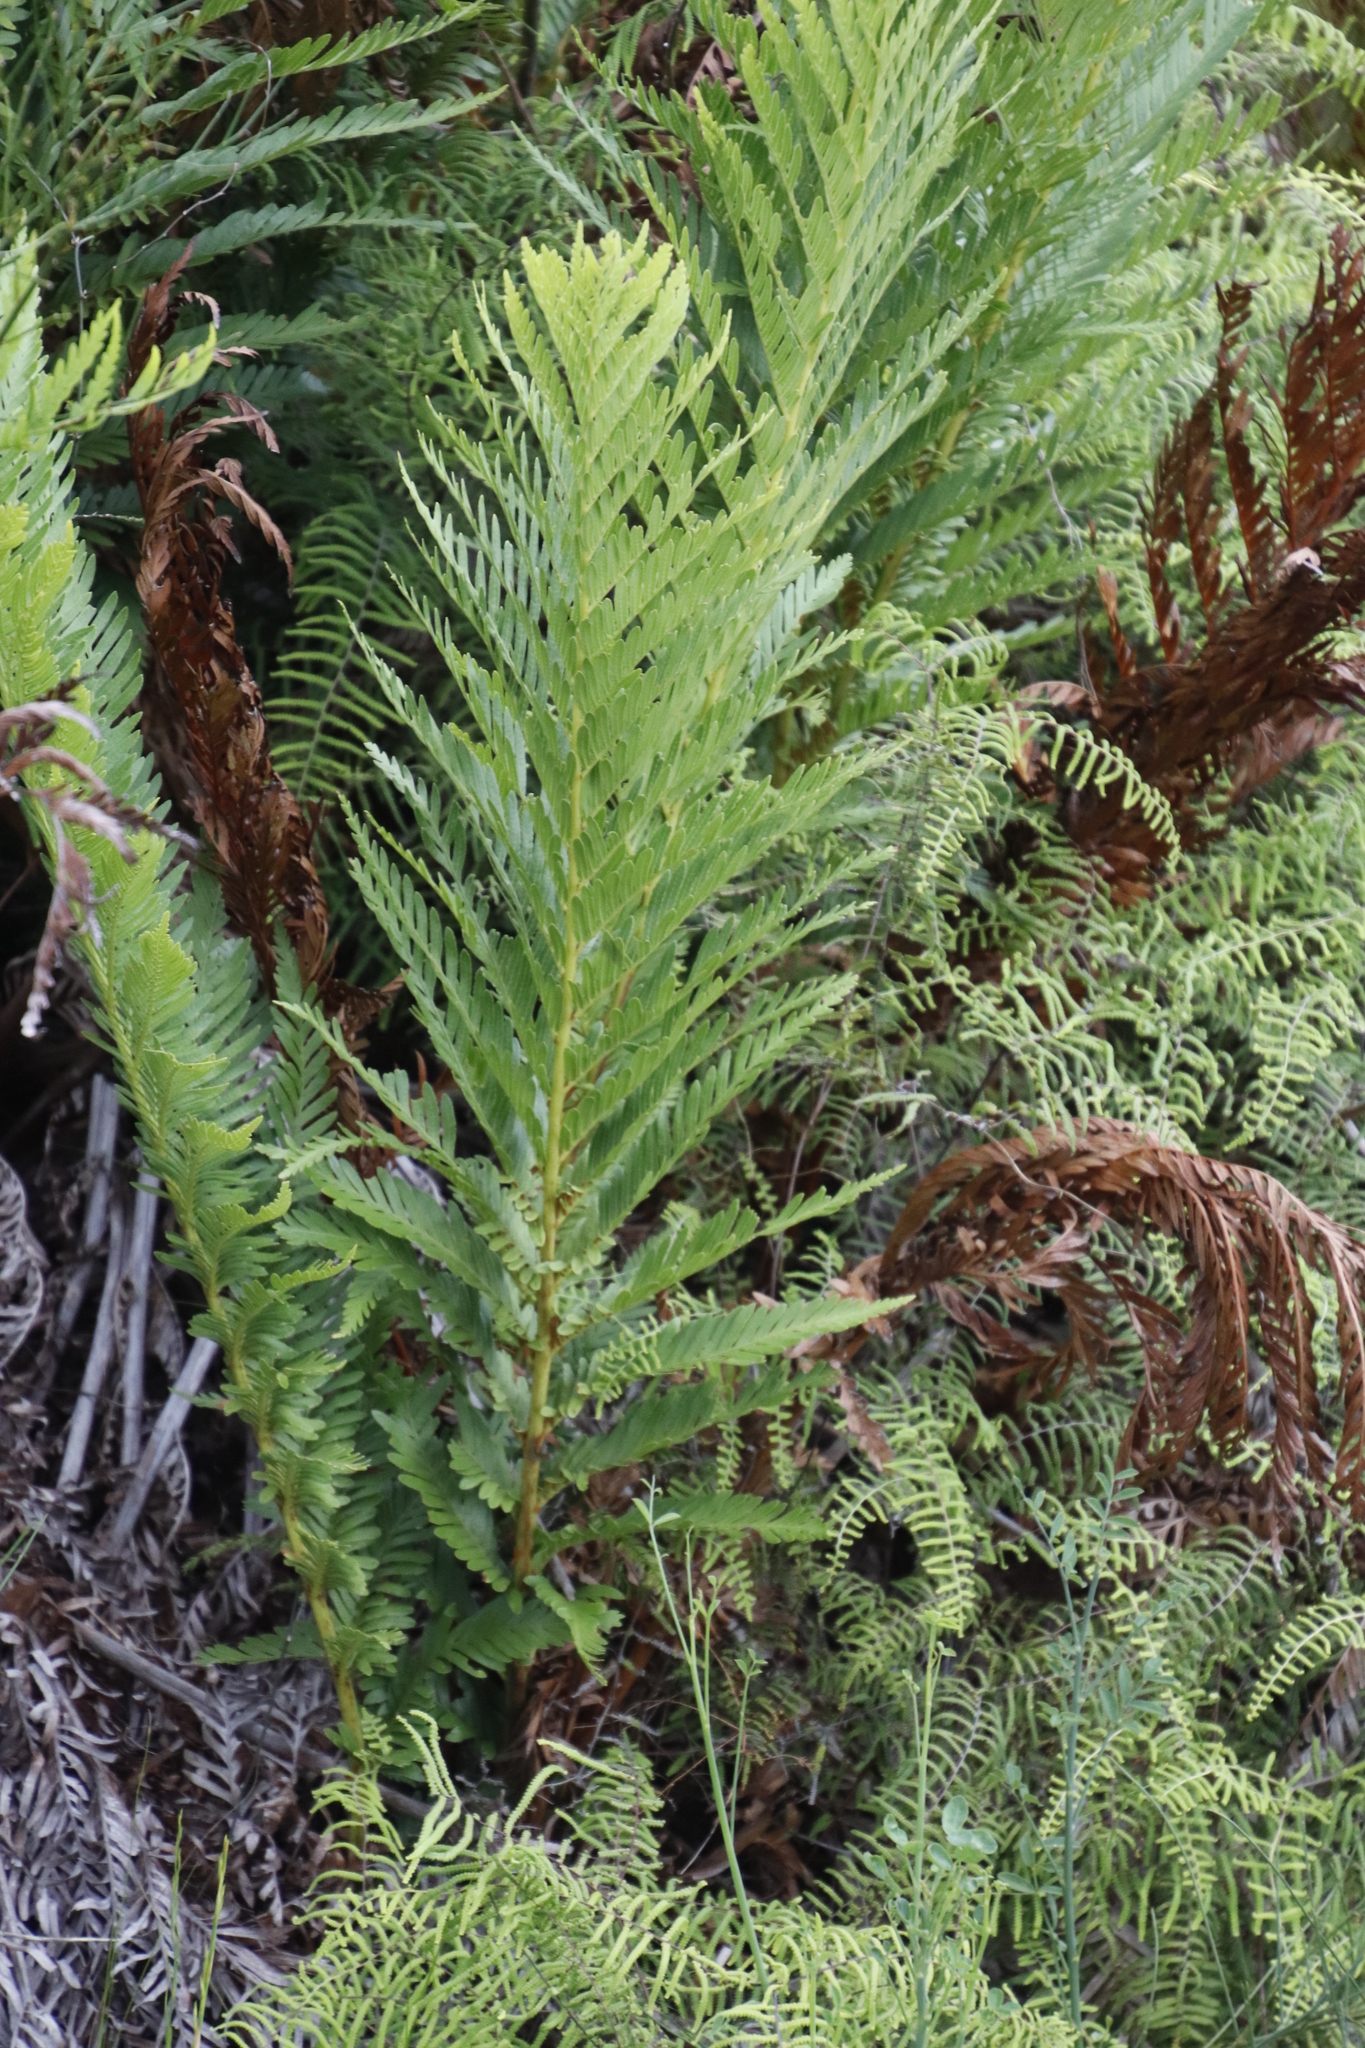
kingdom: Plantae
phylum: Tracheophyta
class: Polypodiopsida
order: Osmundales
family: Osmundaceae
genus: Todea
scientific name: Todea barbara
